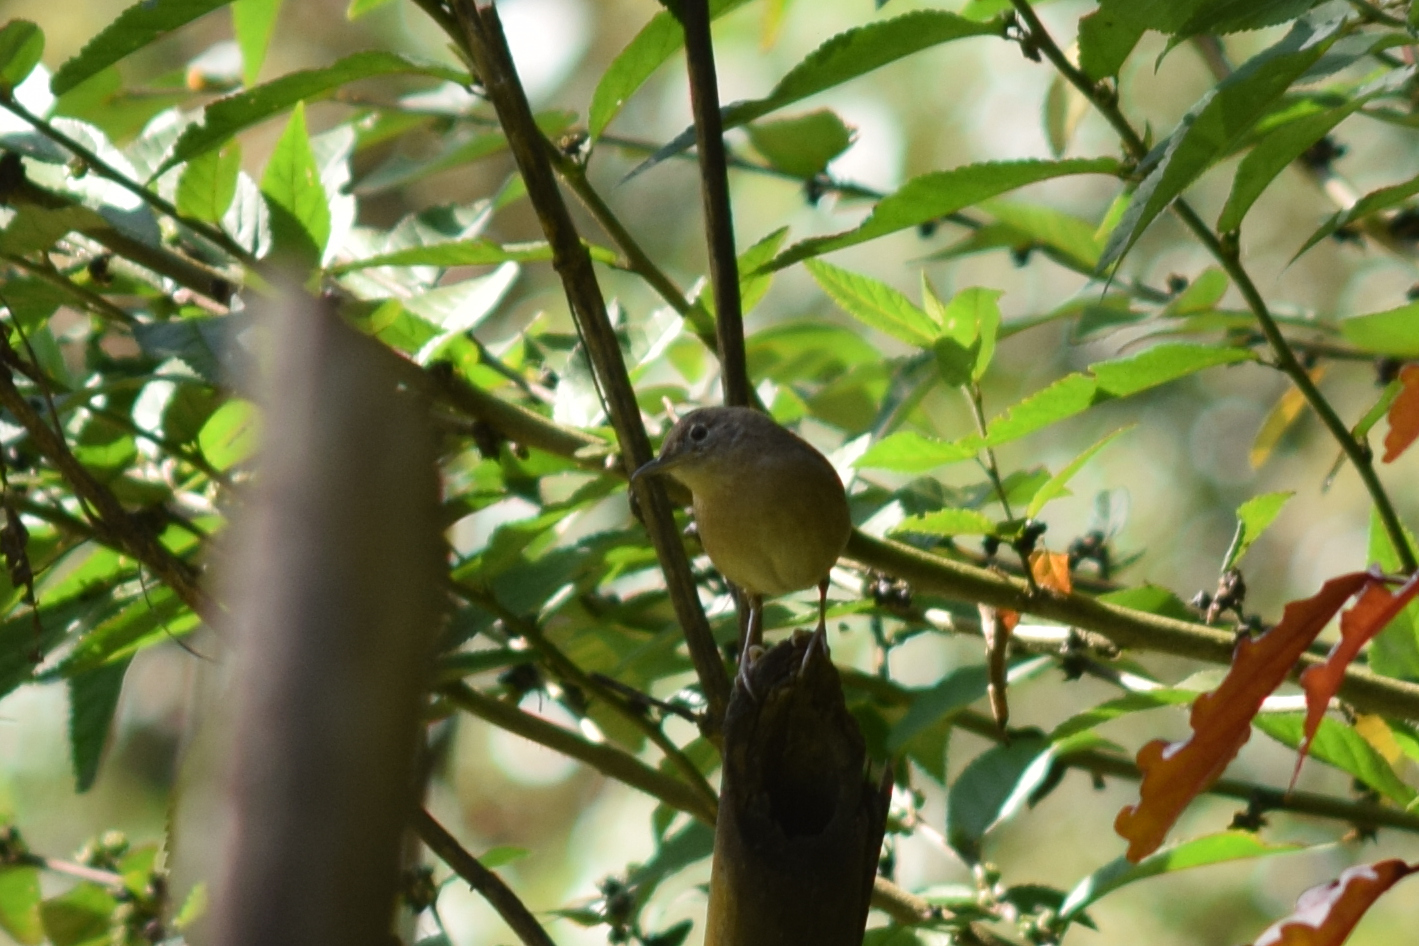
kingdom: Animalia
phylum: Chordata
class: Aves
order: Passeriformes
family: Troglodytidae
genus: Troglodytes
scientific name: Troglodytes aedon
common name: House wren
